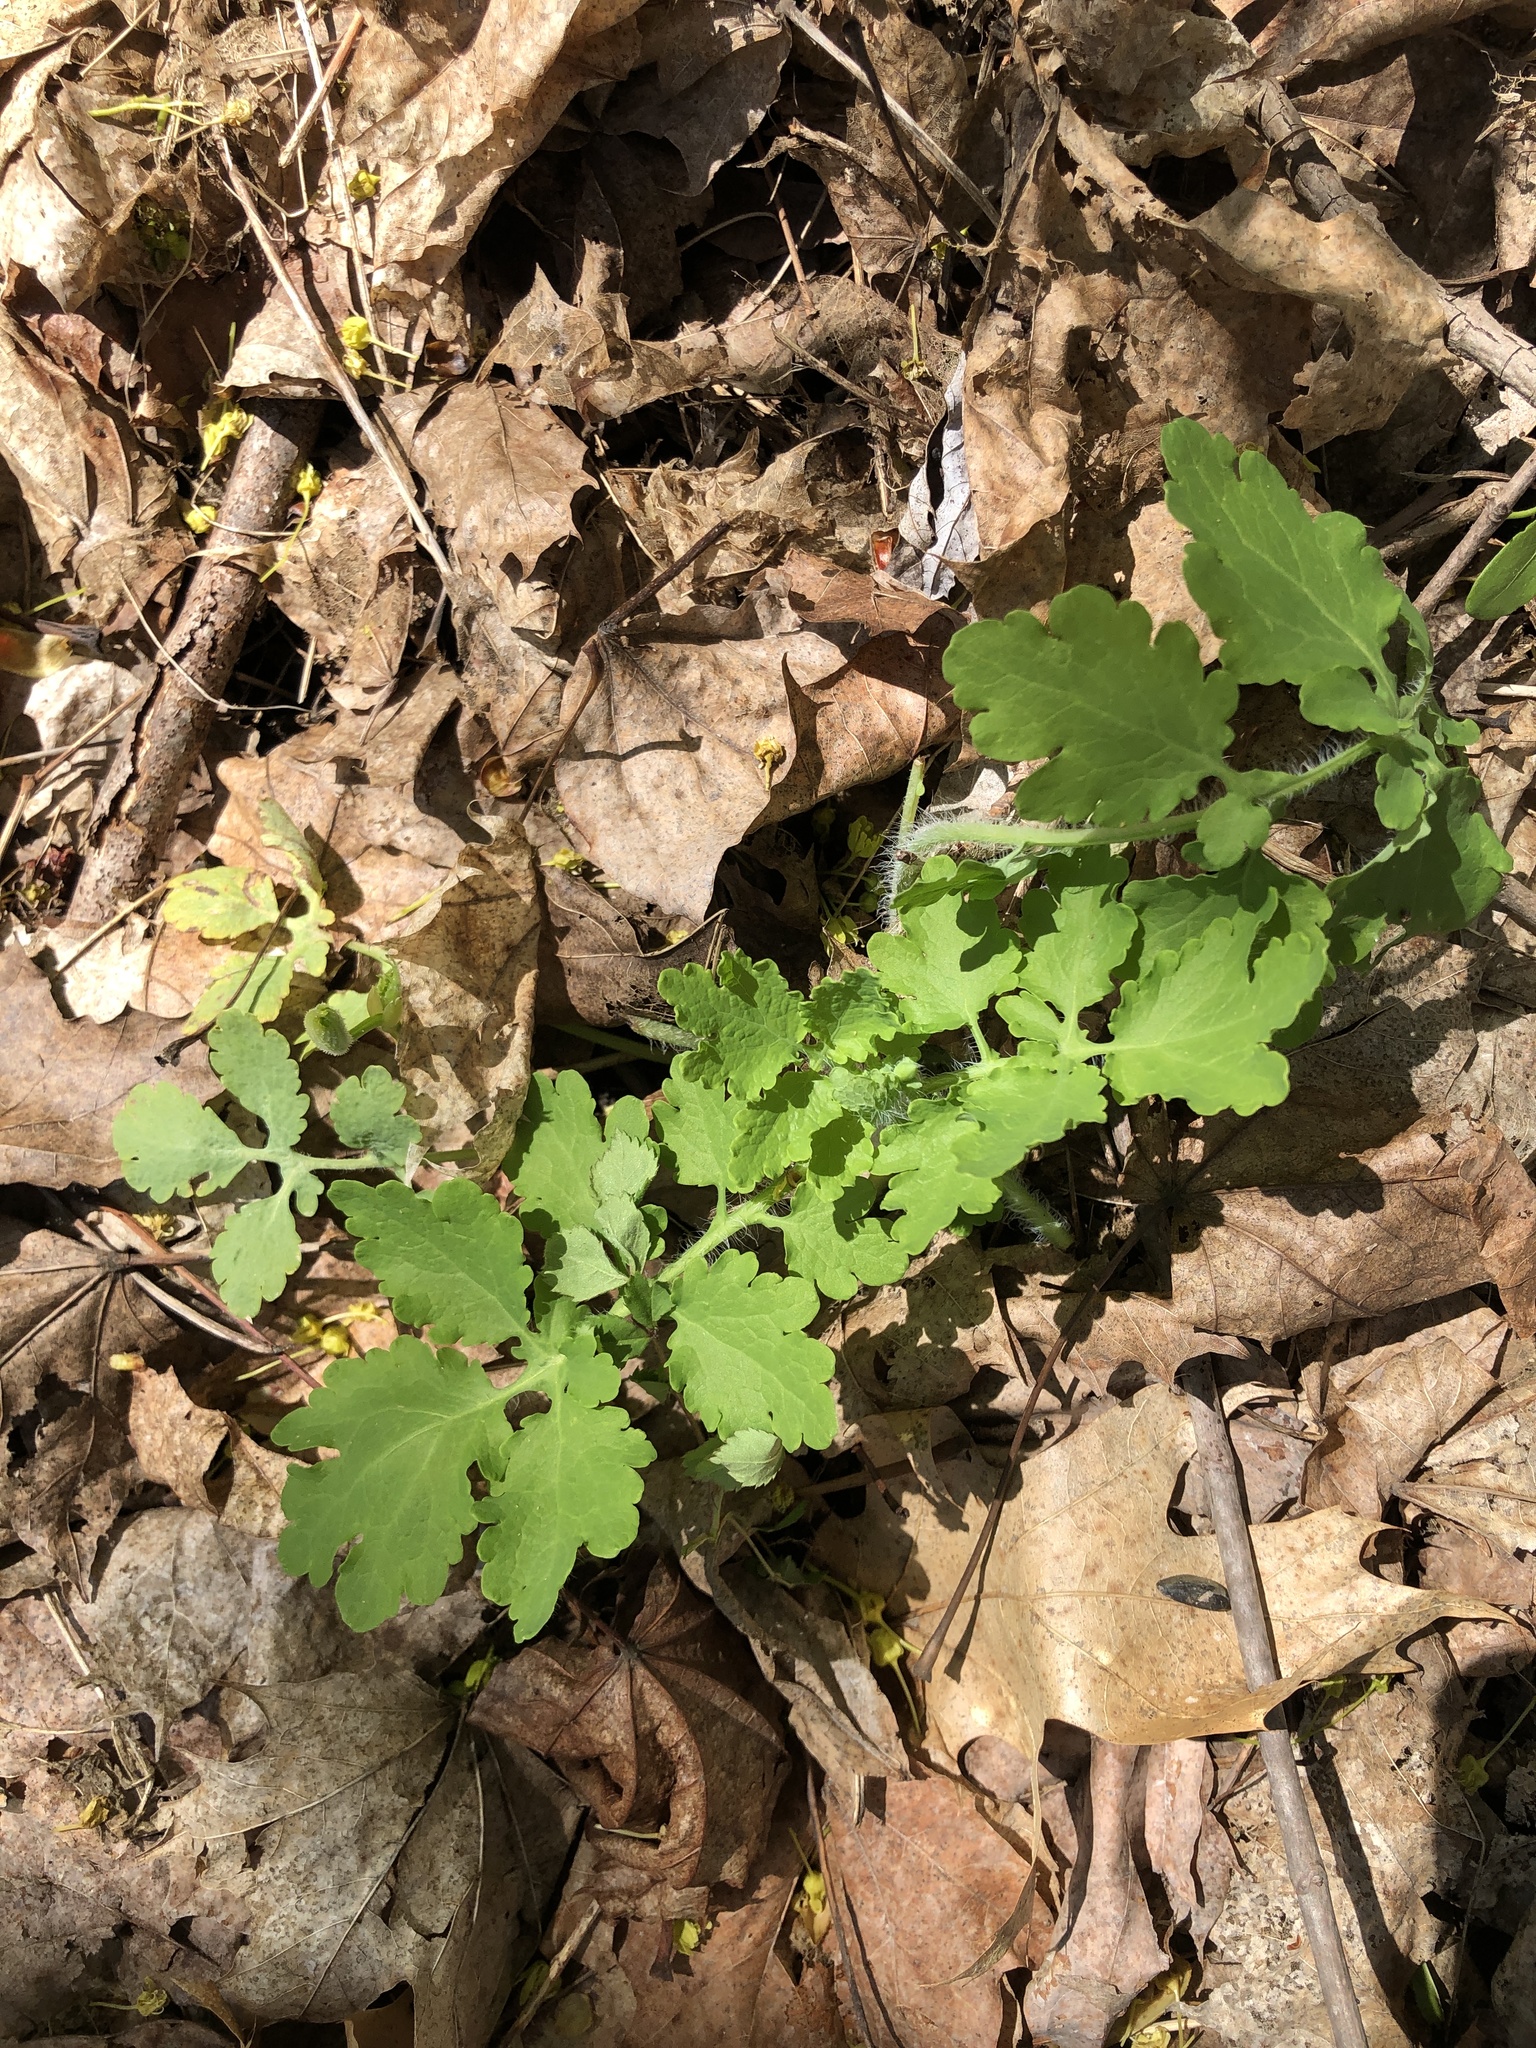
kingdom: Plantae
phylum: Tracheophyta
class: Magnoliopsida
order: Ranunculales
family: Papaveraceae
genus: Chelidonium
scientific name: Chelidonium majus
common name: Greater celandine
